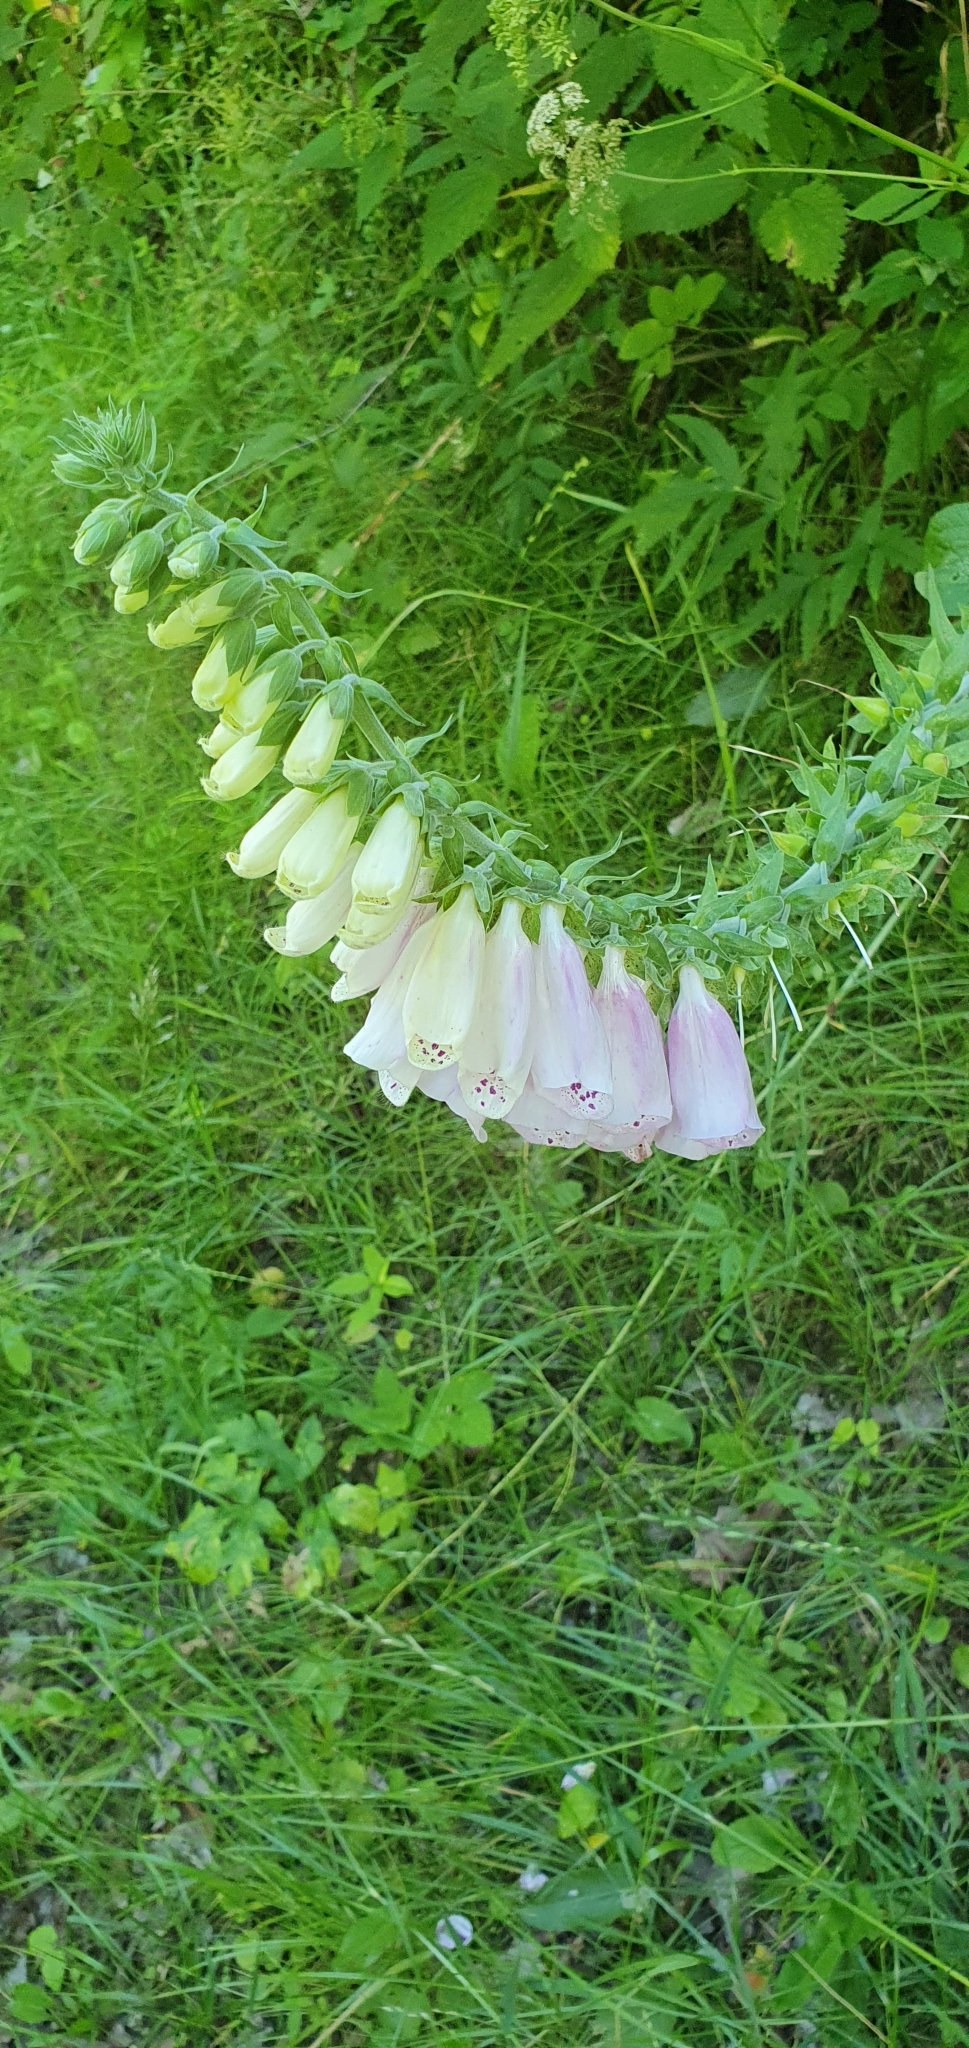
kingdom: Plantae
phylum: Tracheophyta
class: Magnoliopsida
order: Lamiales
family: Plantaginaceae
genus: Digitalis
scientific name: Digitalis purpurea
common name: Foxglove
